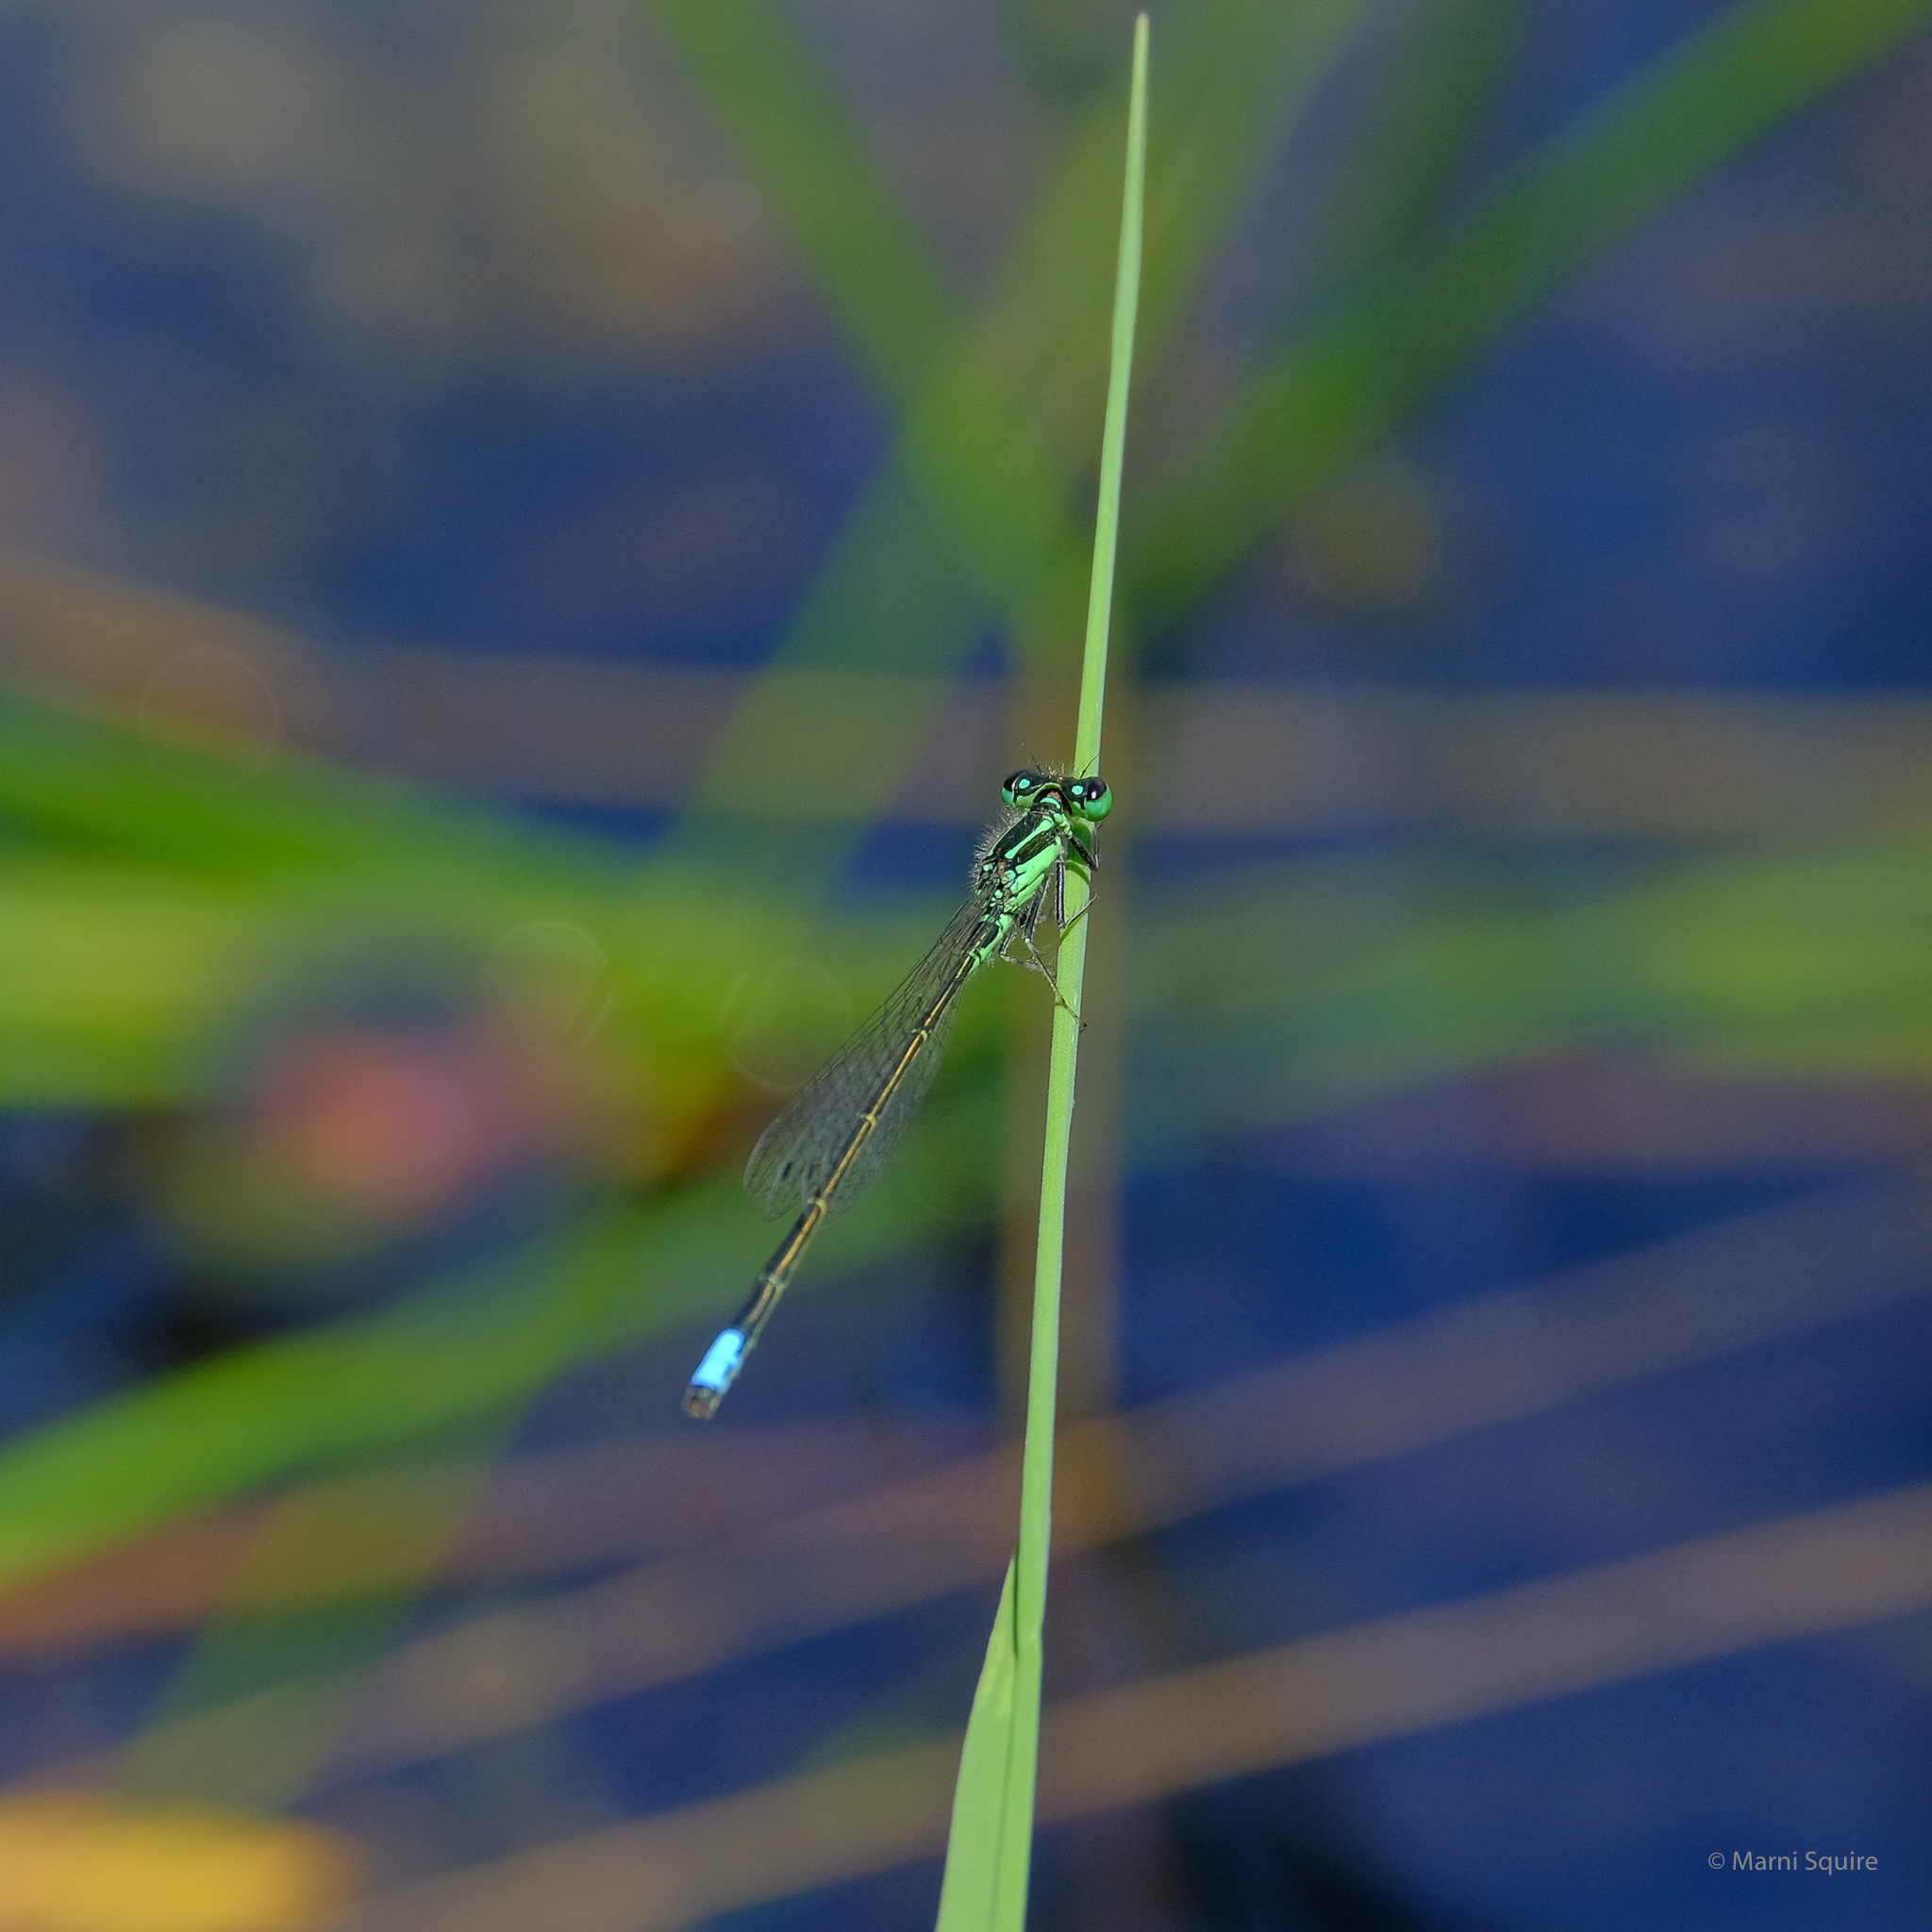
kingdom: Animalia
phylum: Arthropoda
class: Insecta
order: Odonata
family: Coenagrionidae
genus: Ischnura
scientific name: Ischnura verticalis
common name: Eastern forktail
